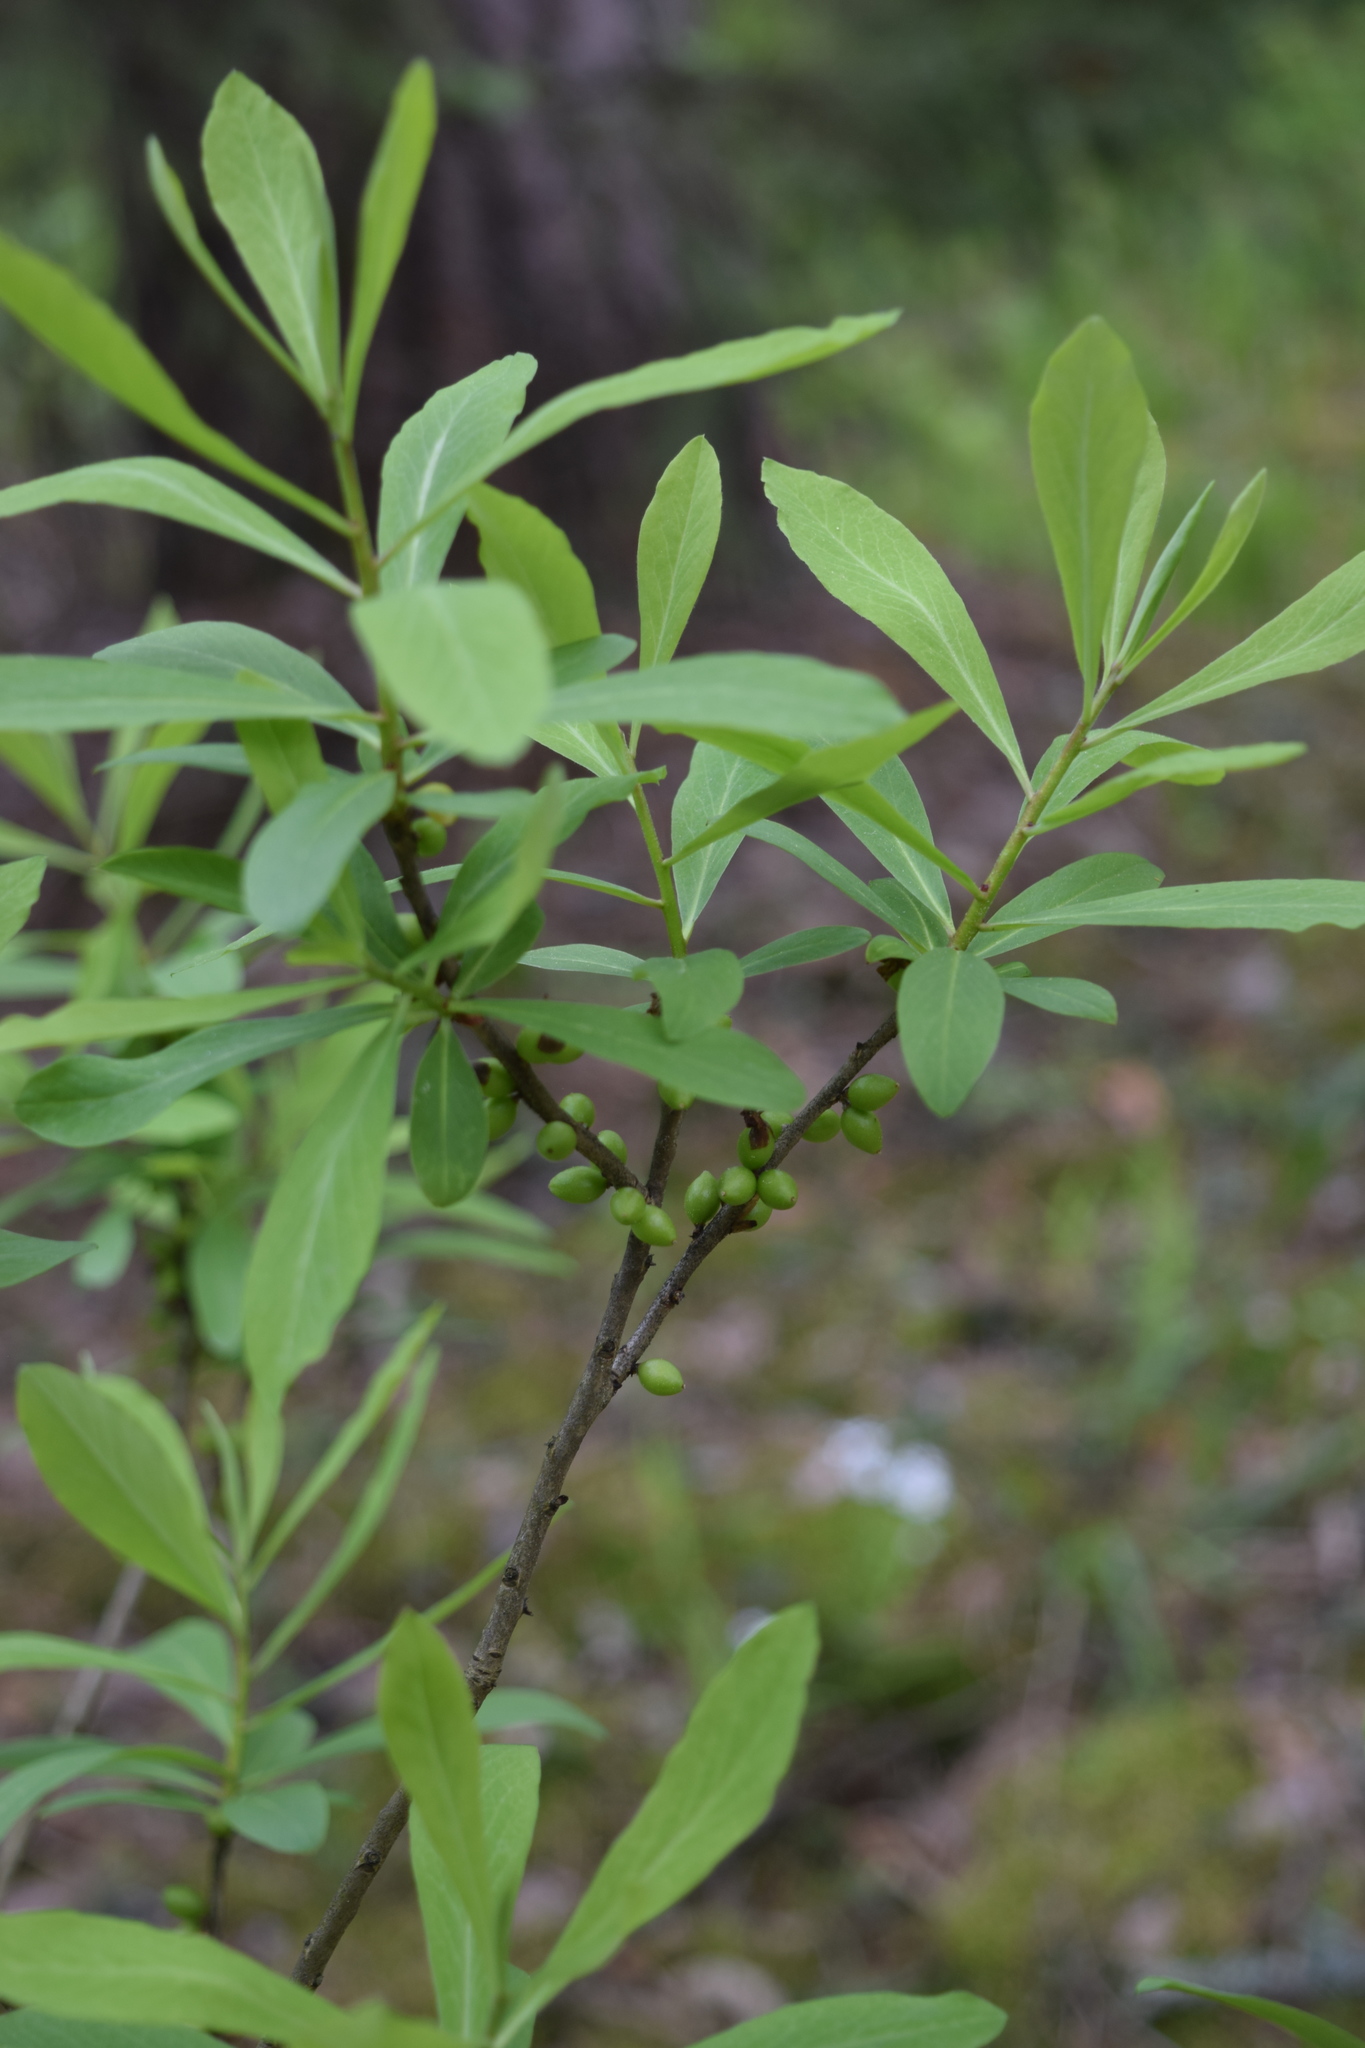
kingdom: Plantae
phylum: Tracheophyta
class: Magnoliopsida
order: Malvales
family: Thymelaeaceae
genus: Daphne
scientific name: Daphne mezereum
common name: Mezereon
